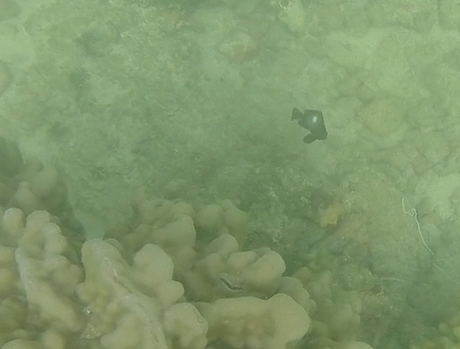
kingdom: Animalia
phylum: Chordata
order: Perciformes
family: Pomacentridae
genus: Dascyllus
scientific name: Dascyllus albisella
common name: Hawaiian dascyllus
